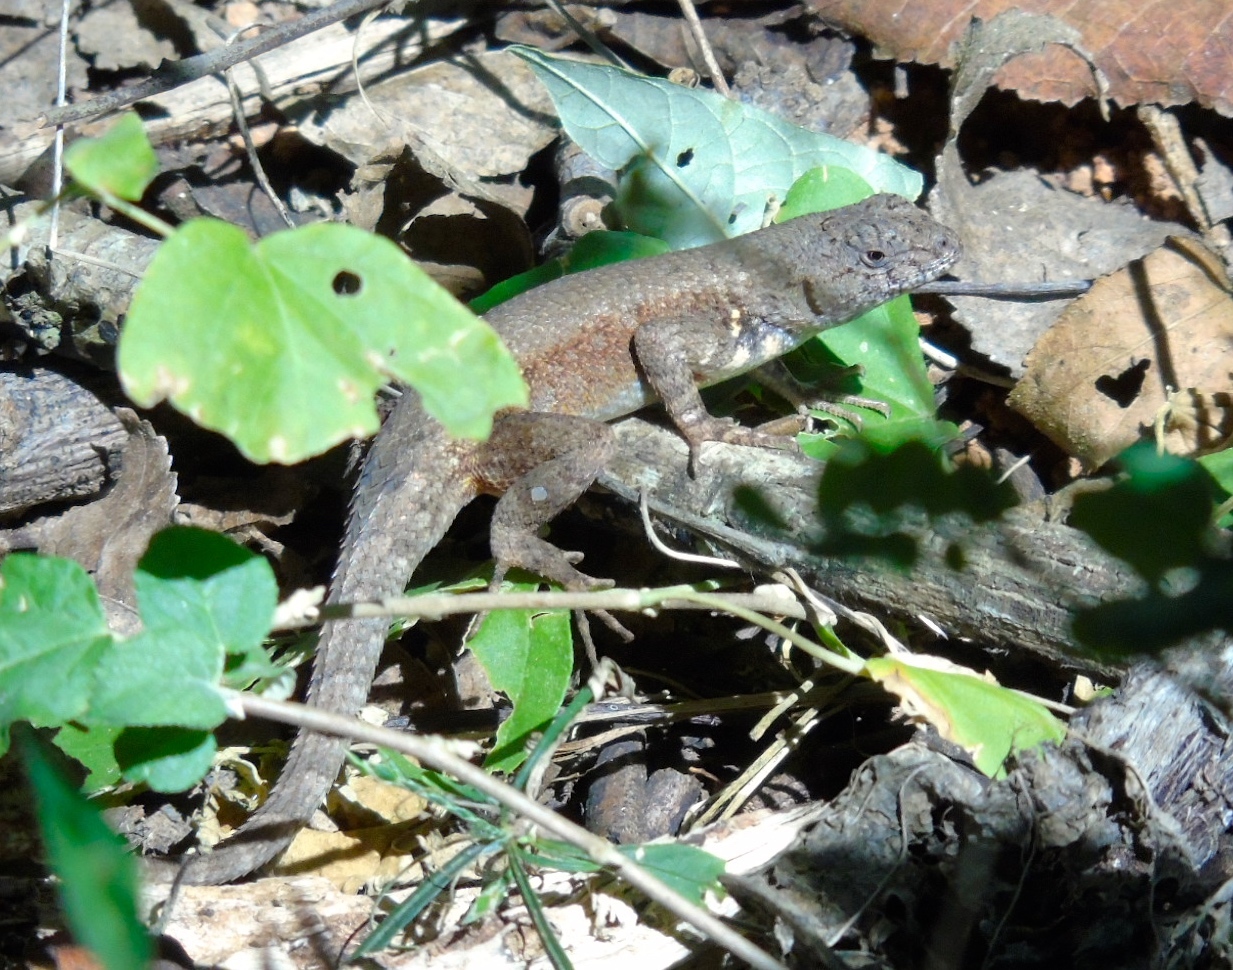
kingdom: Animalia
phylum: Chordata
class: Squamata
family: Phrynosomatidae
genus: Sceloporus
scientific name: Sceloporus nelsoni
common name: Nelson's spiny lizard
